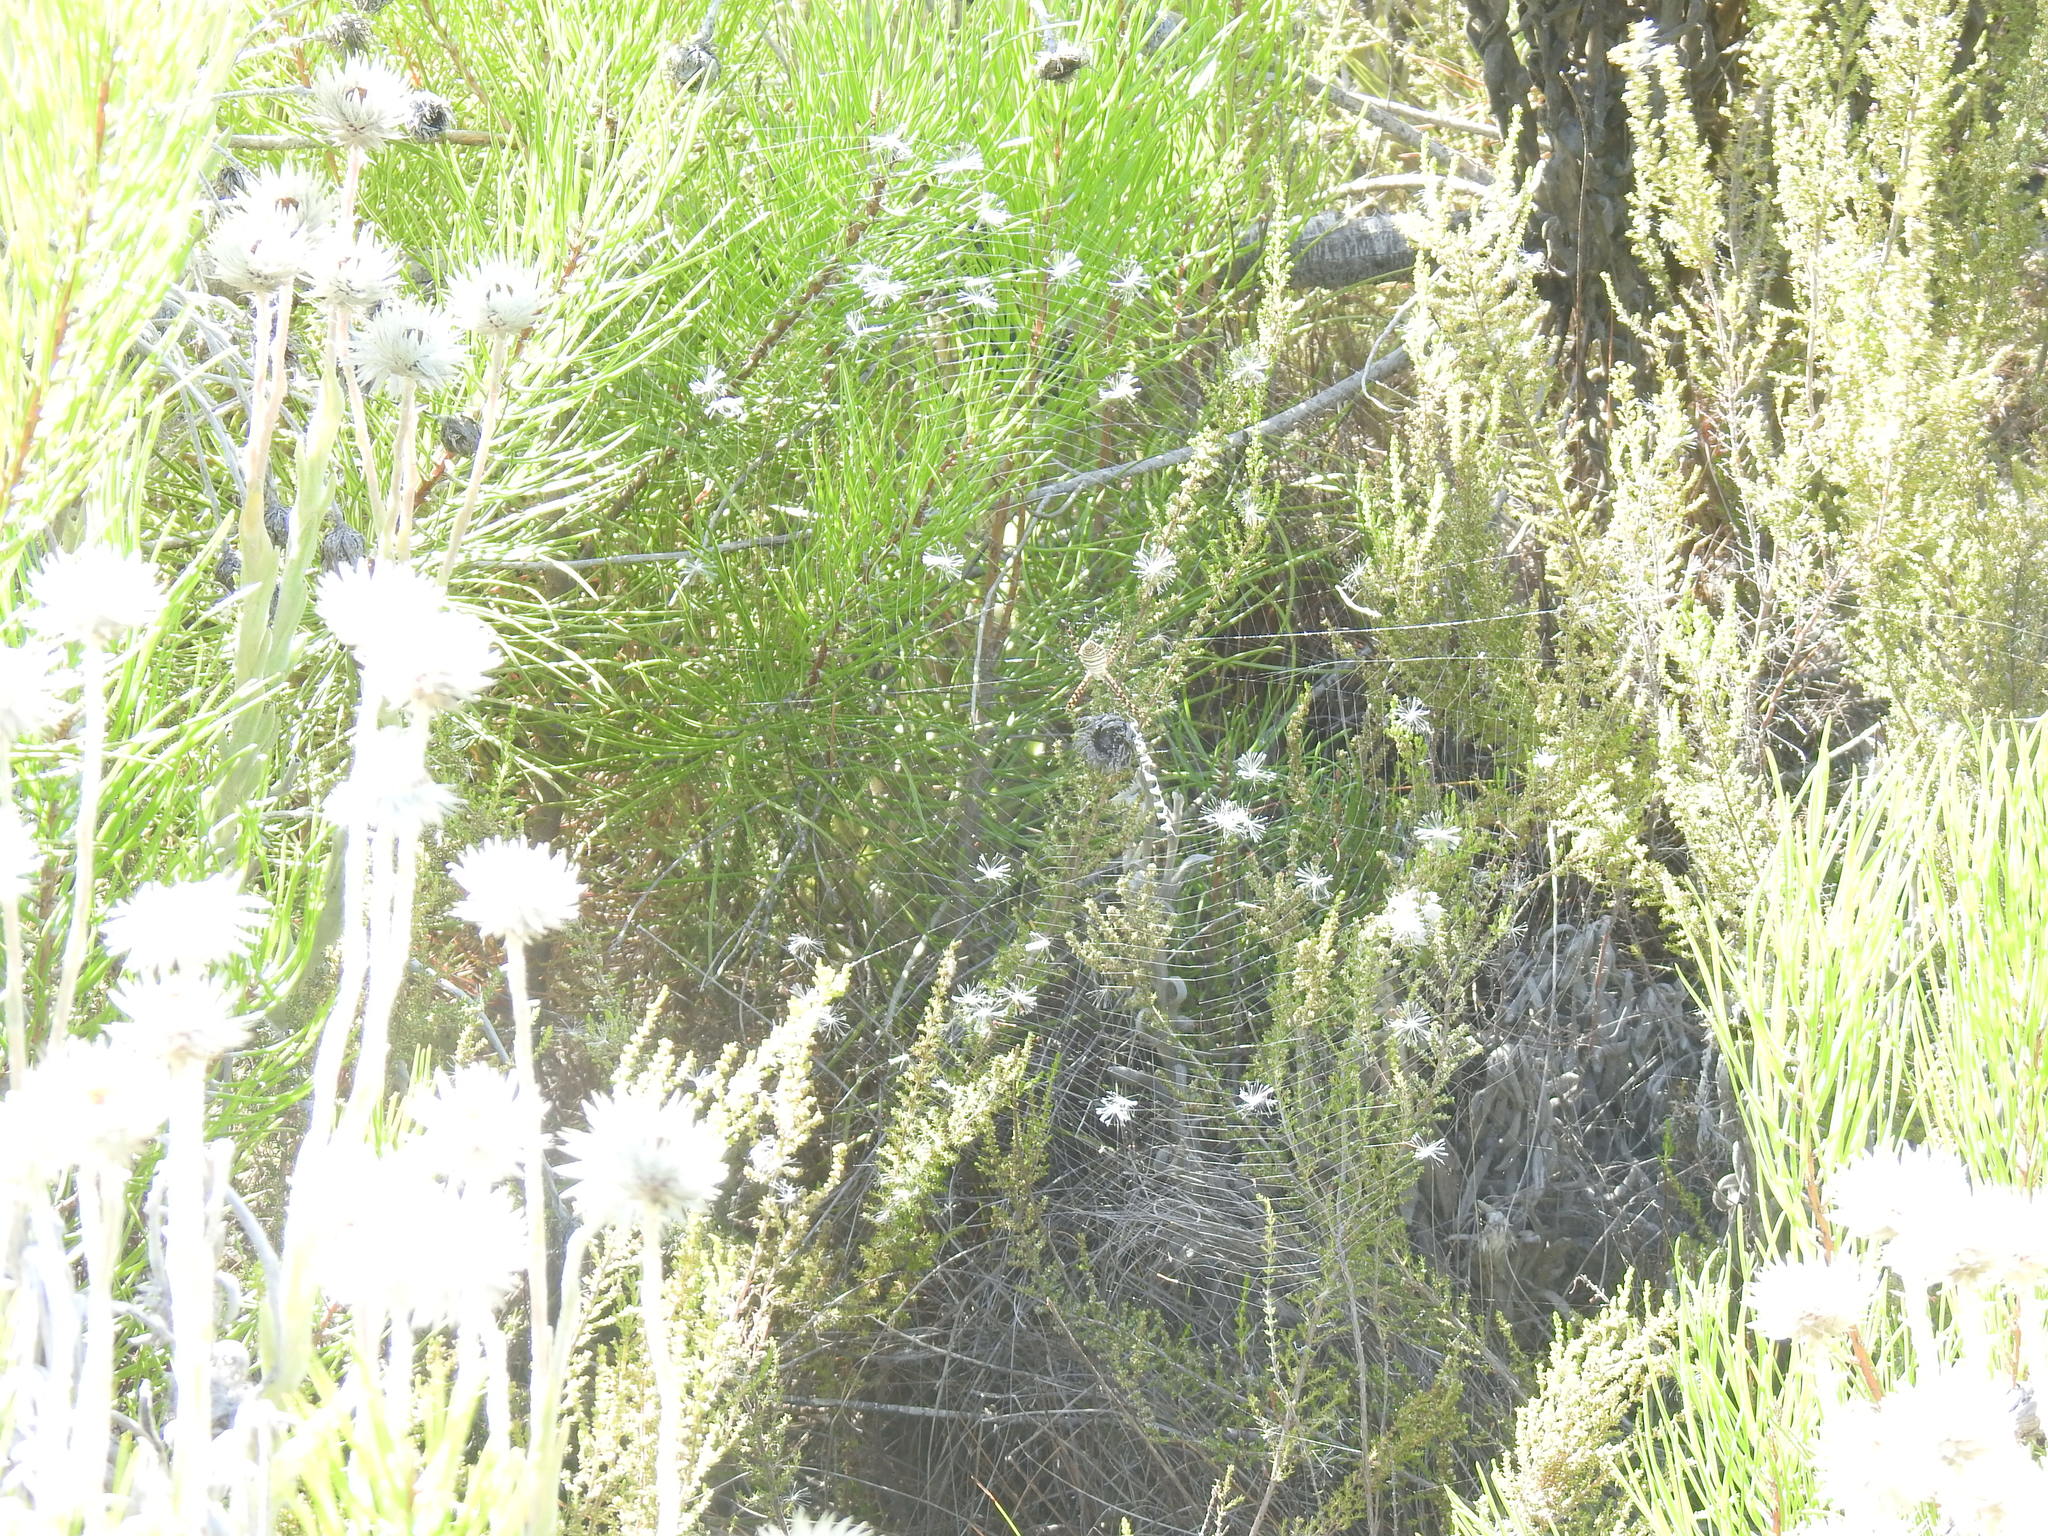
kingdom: Animalia
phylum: Arthropoda
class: Arachnida
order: Araneae
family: Araneidae
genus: Argiope
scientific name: Argiope trifasciata
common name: Banded garden spider
